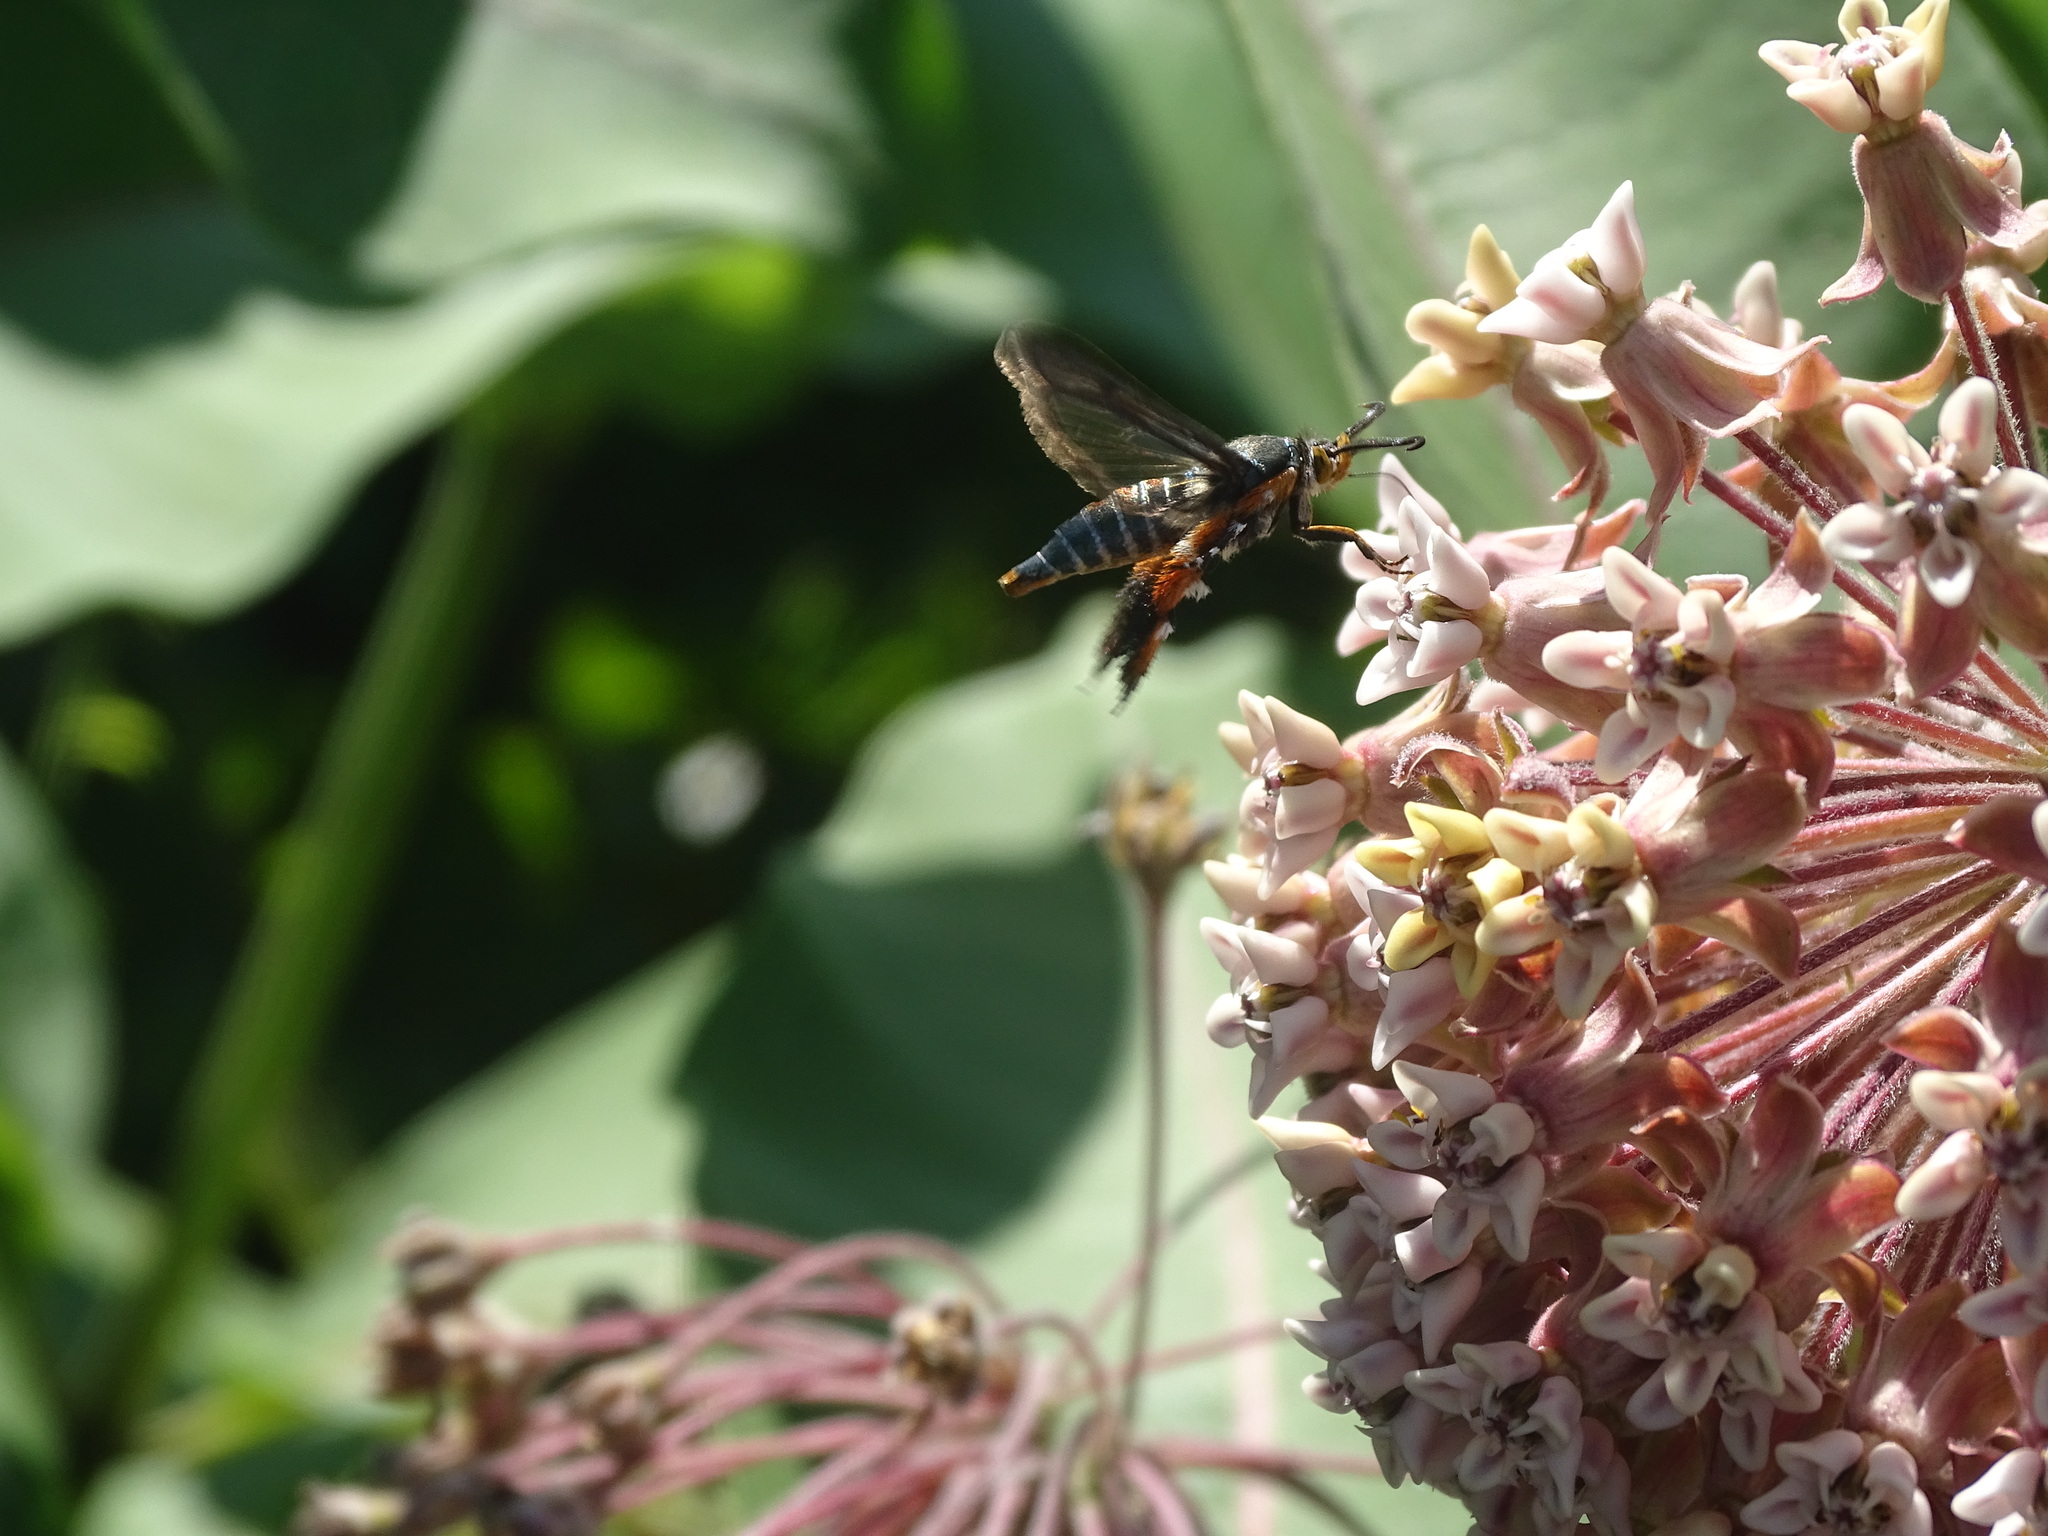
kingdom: Animalia
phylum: Arthropoda
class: Insecta
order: Lepidoptera
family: Sesiidae
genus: Eichlinia
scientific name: Eichlinia cucurbitae
